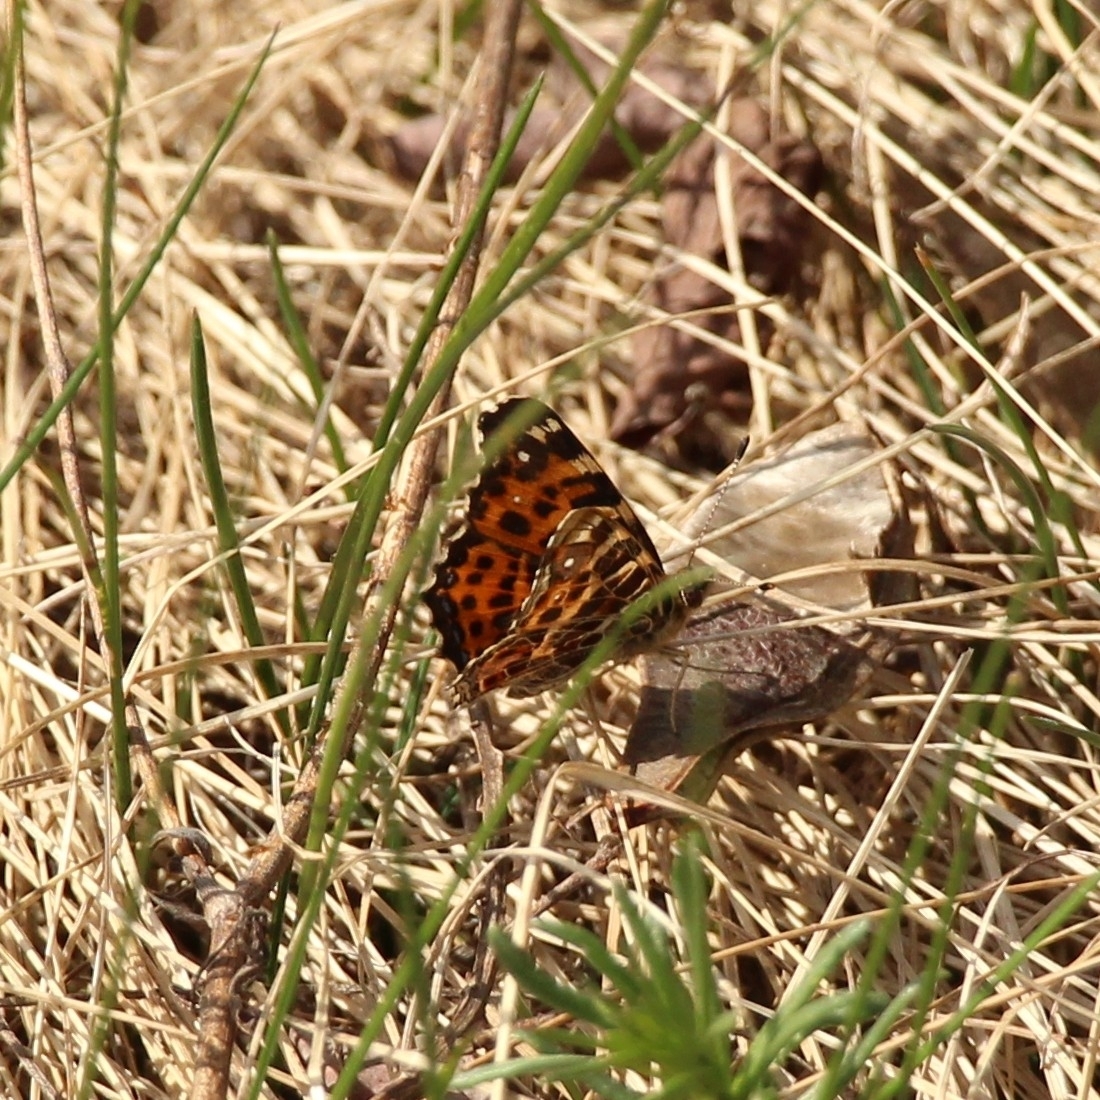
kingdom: Animalia
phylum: Arthropoda
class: Insecta
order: Lepidoptera
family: Nymphalidae
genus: Araschnia
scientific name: Araschnia levana
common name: Map butterfly
